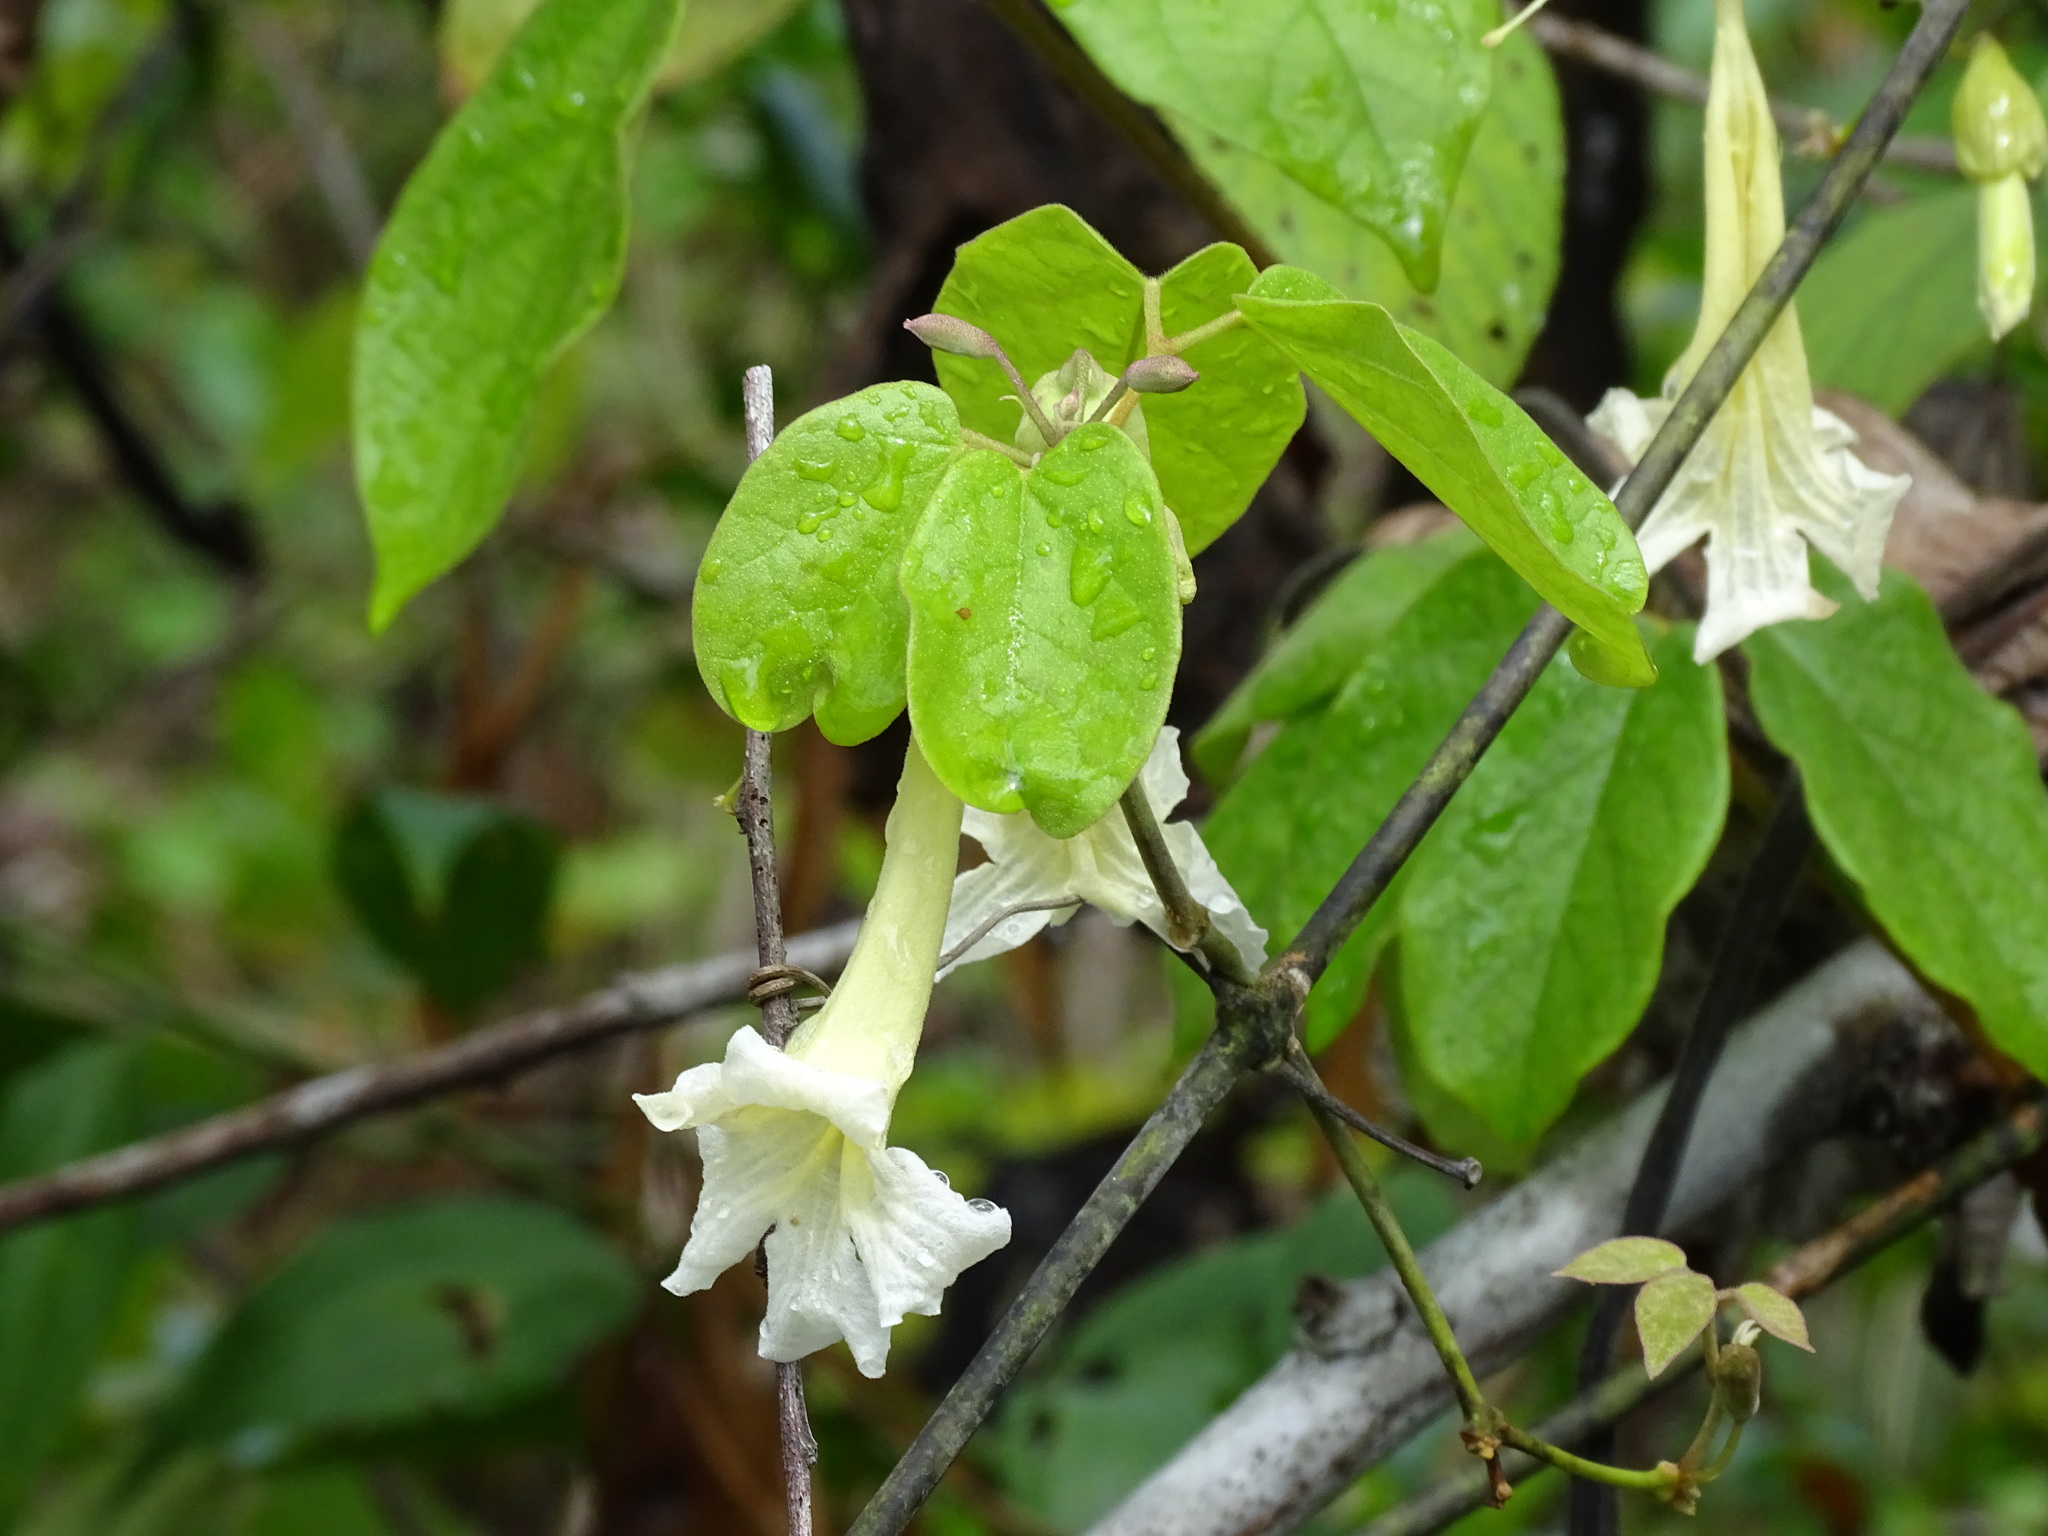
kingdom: Plantae
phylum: Tracheophyta
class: Magnoliopsida
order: Lamiales
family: Bignoniaceae
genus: Stizophyllum
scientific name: Stizophyllum riparium
